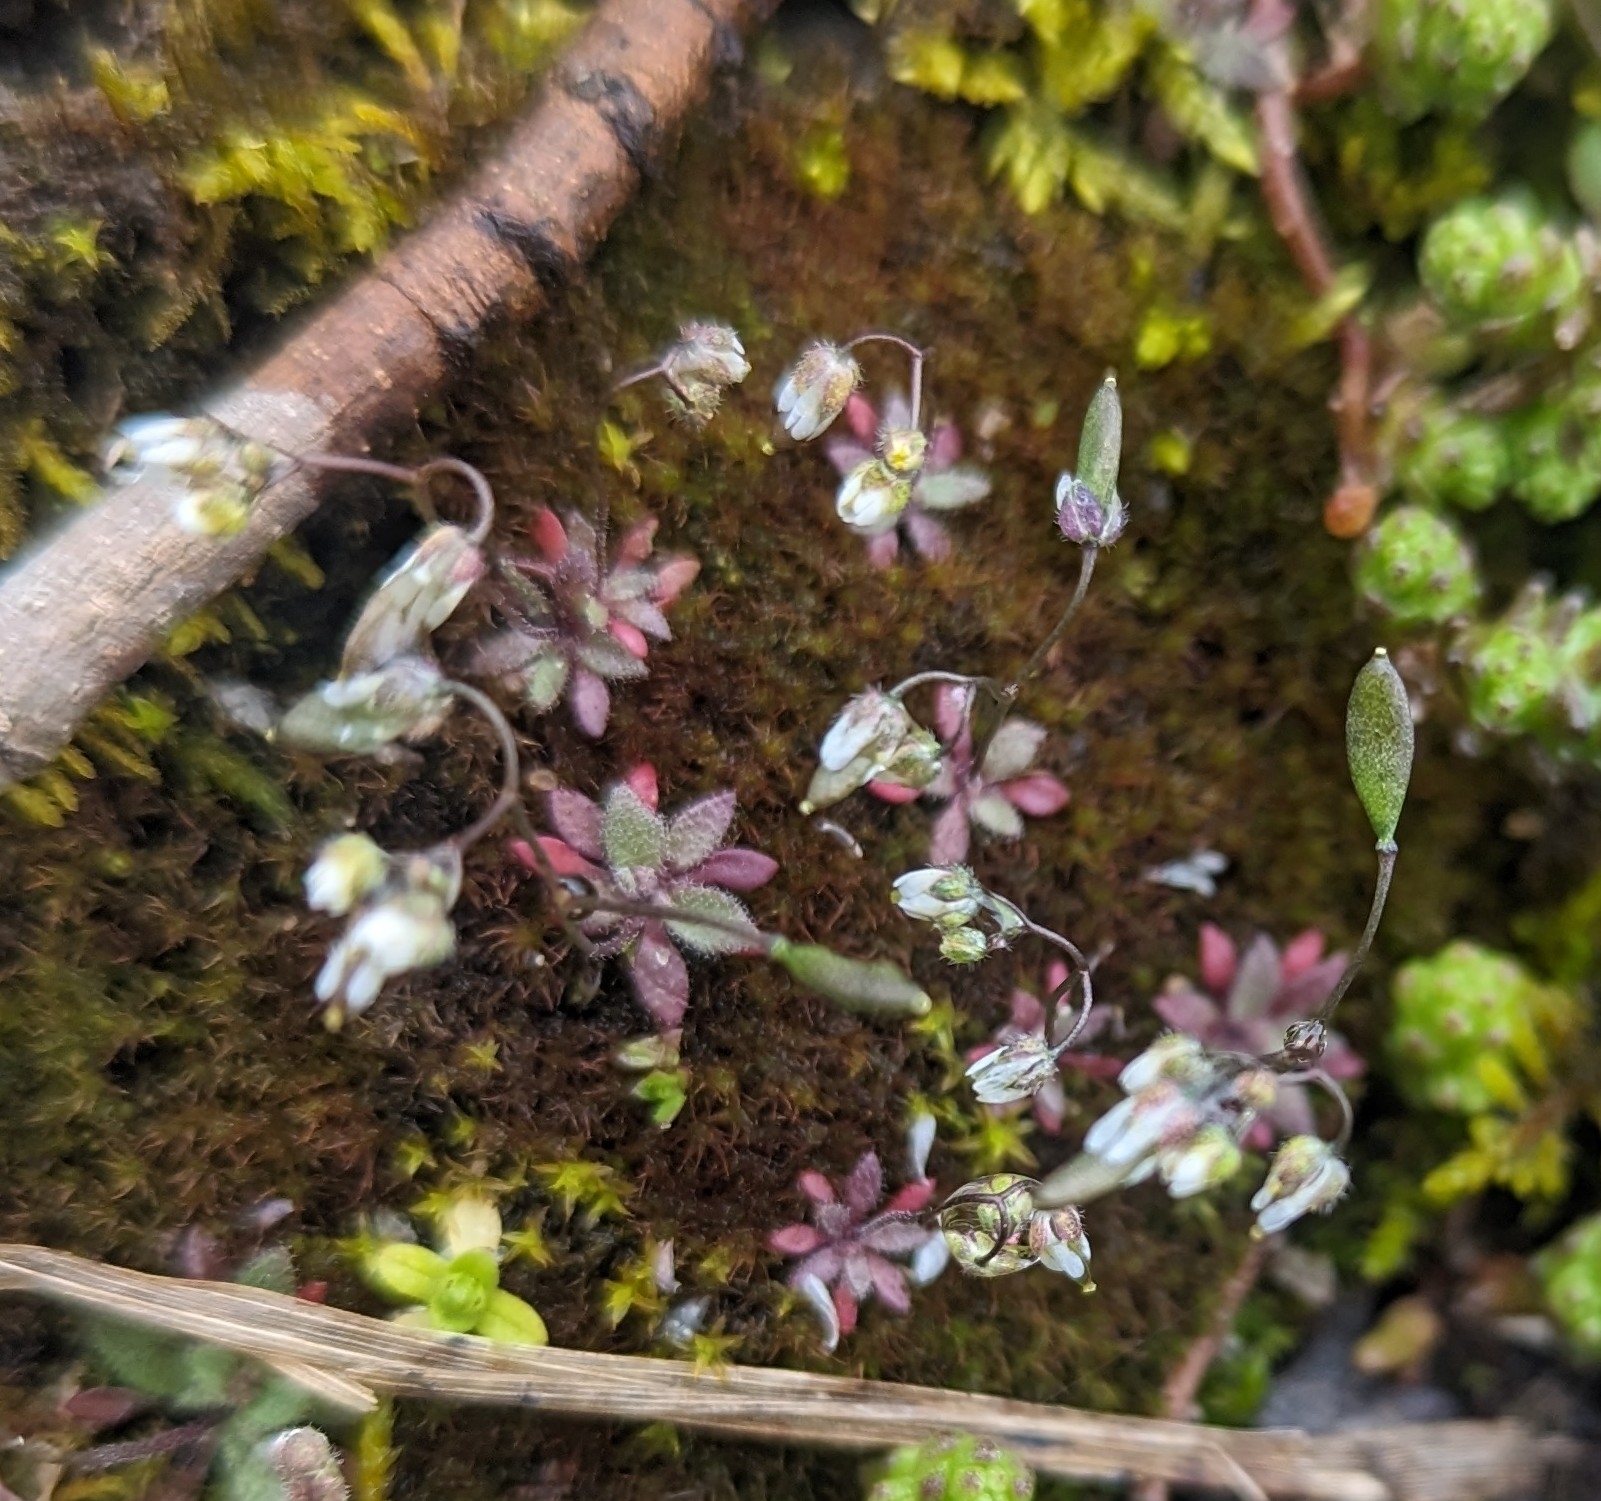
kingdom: Plantae
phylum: Tracheophyta
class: Magnoliopsida
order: Brassicales
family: Brassicaceae
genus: Draba
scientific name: Draba verna
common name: Spring draba
